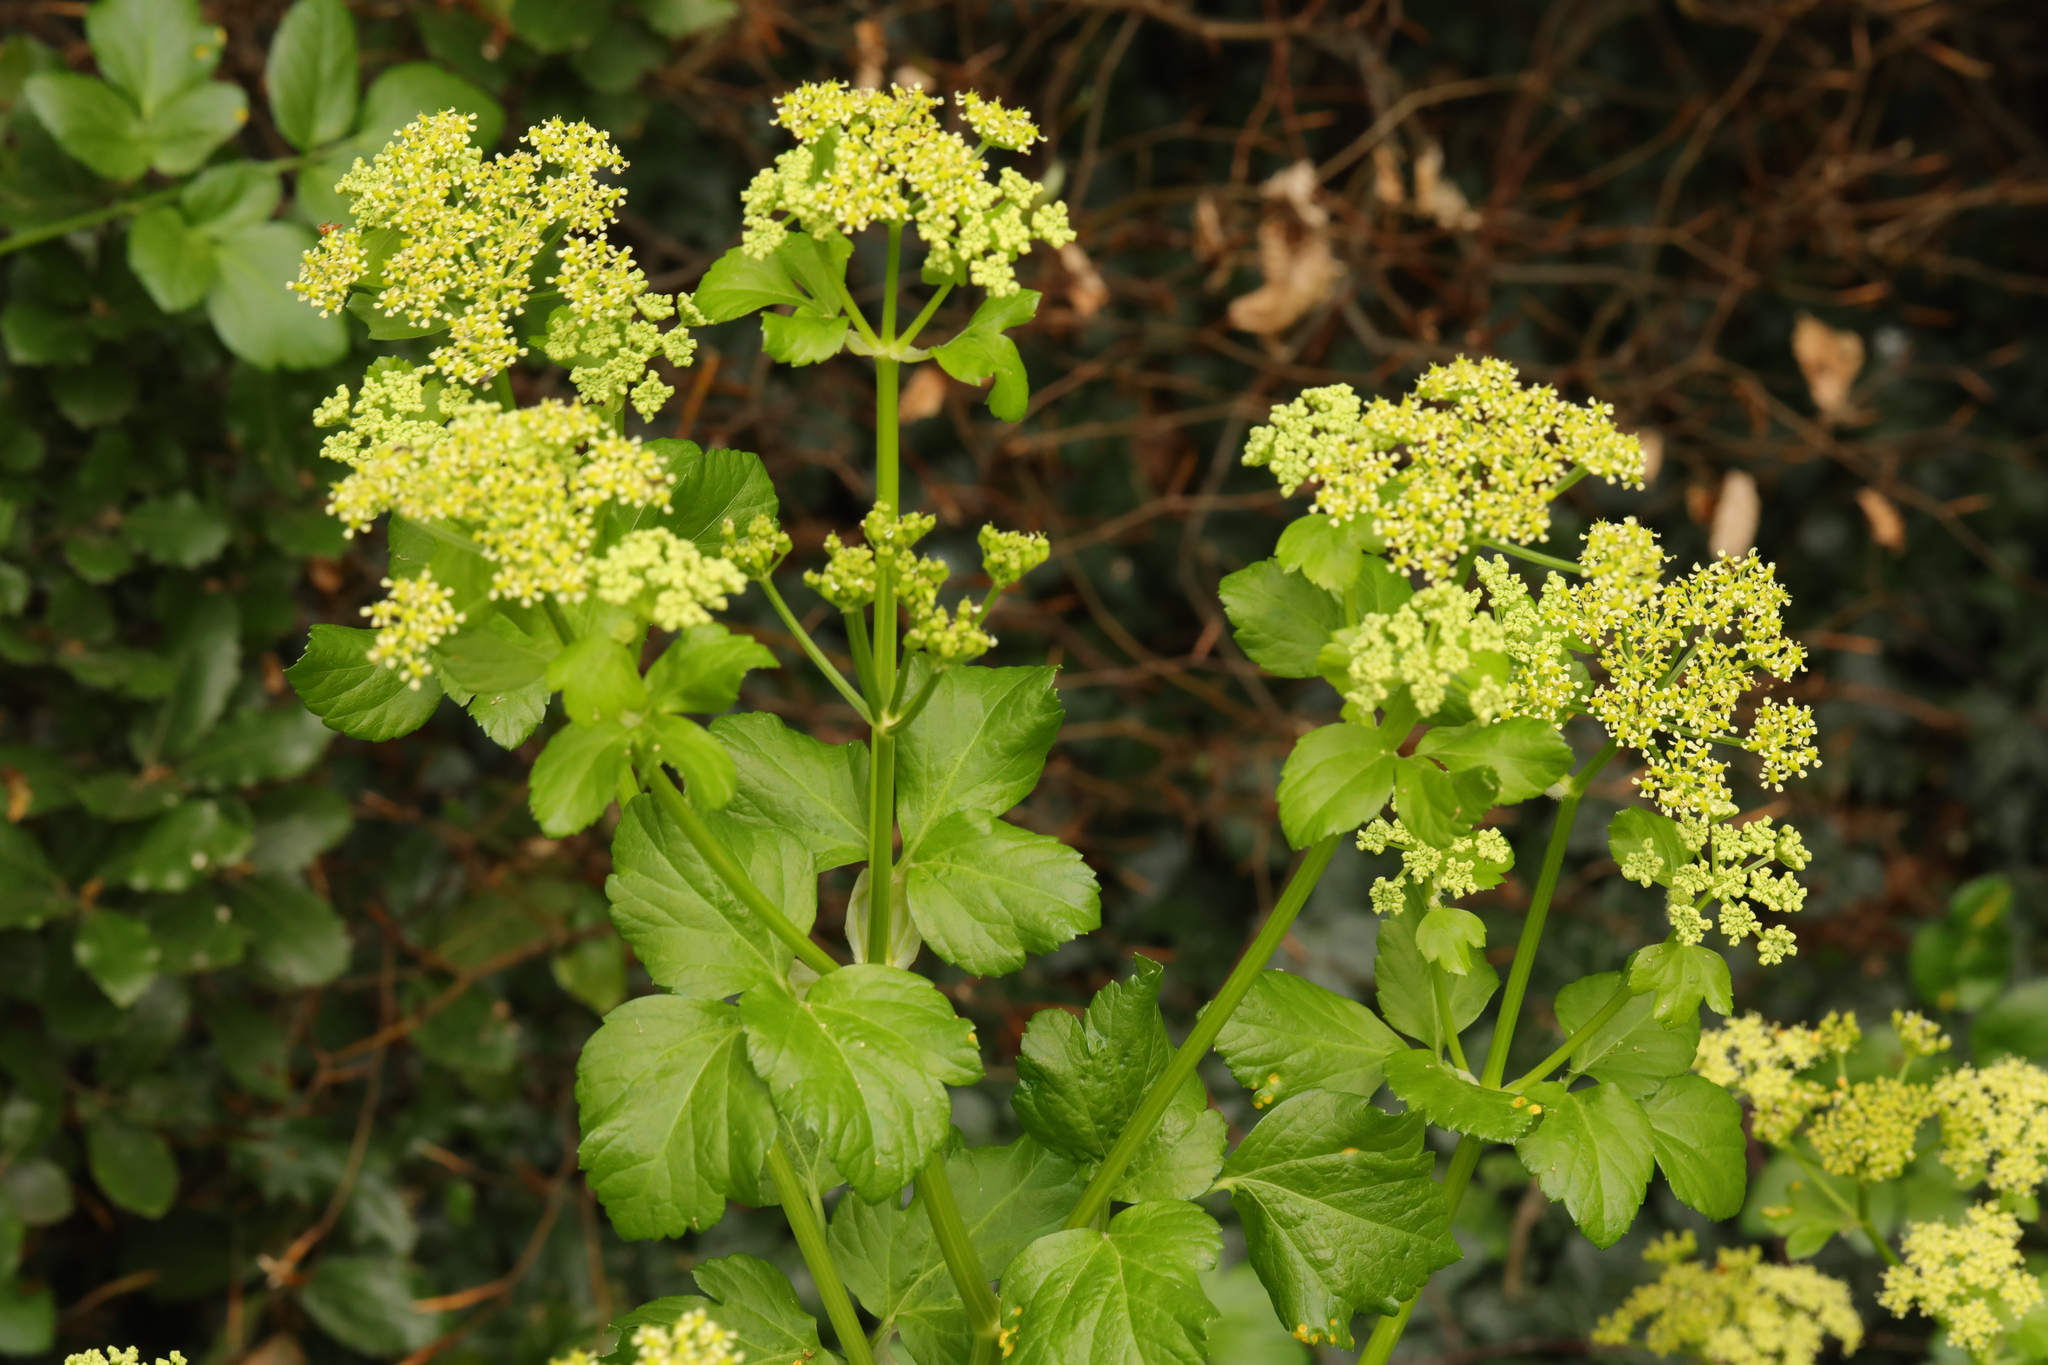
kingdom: Plantae
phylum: Tracheophyta
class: Magnoliopsida
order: Apiales
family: Apiaceae
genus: Smyrnium
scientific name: Smyrnium olusatrum
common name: Alexanders
